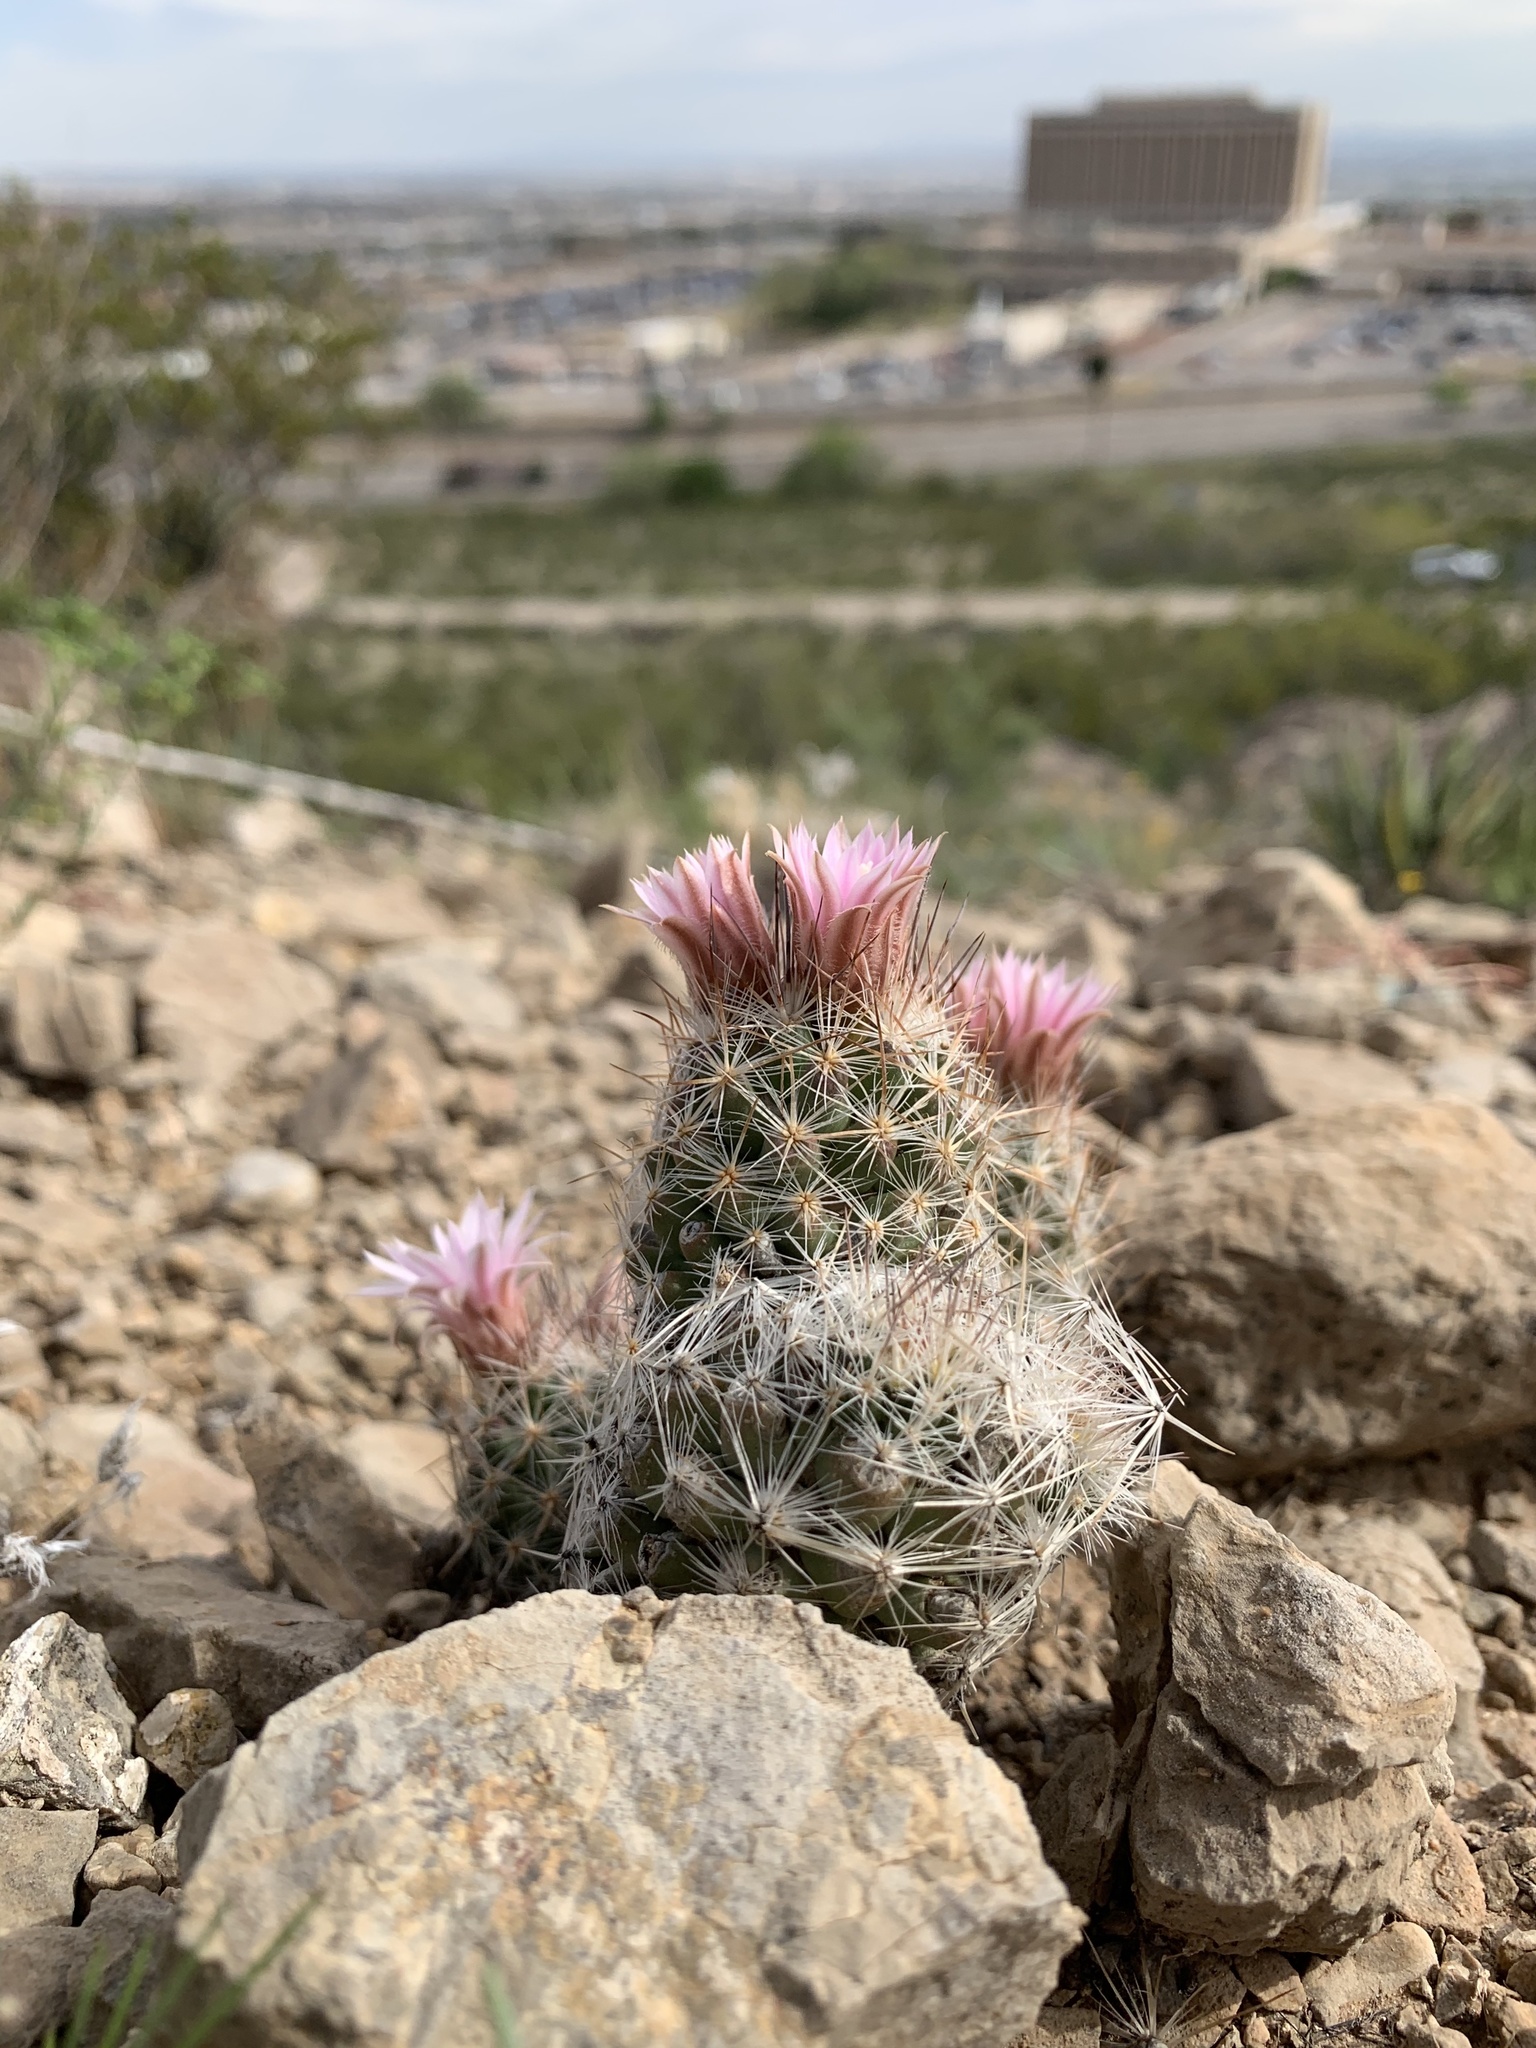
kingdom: Plantae
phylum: Tracheophyta
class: Magnoliopsida
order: Caryophyllales
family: Cactaceae
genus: Pelecyphora
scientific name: Pelecyphora tuberculosa
